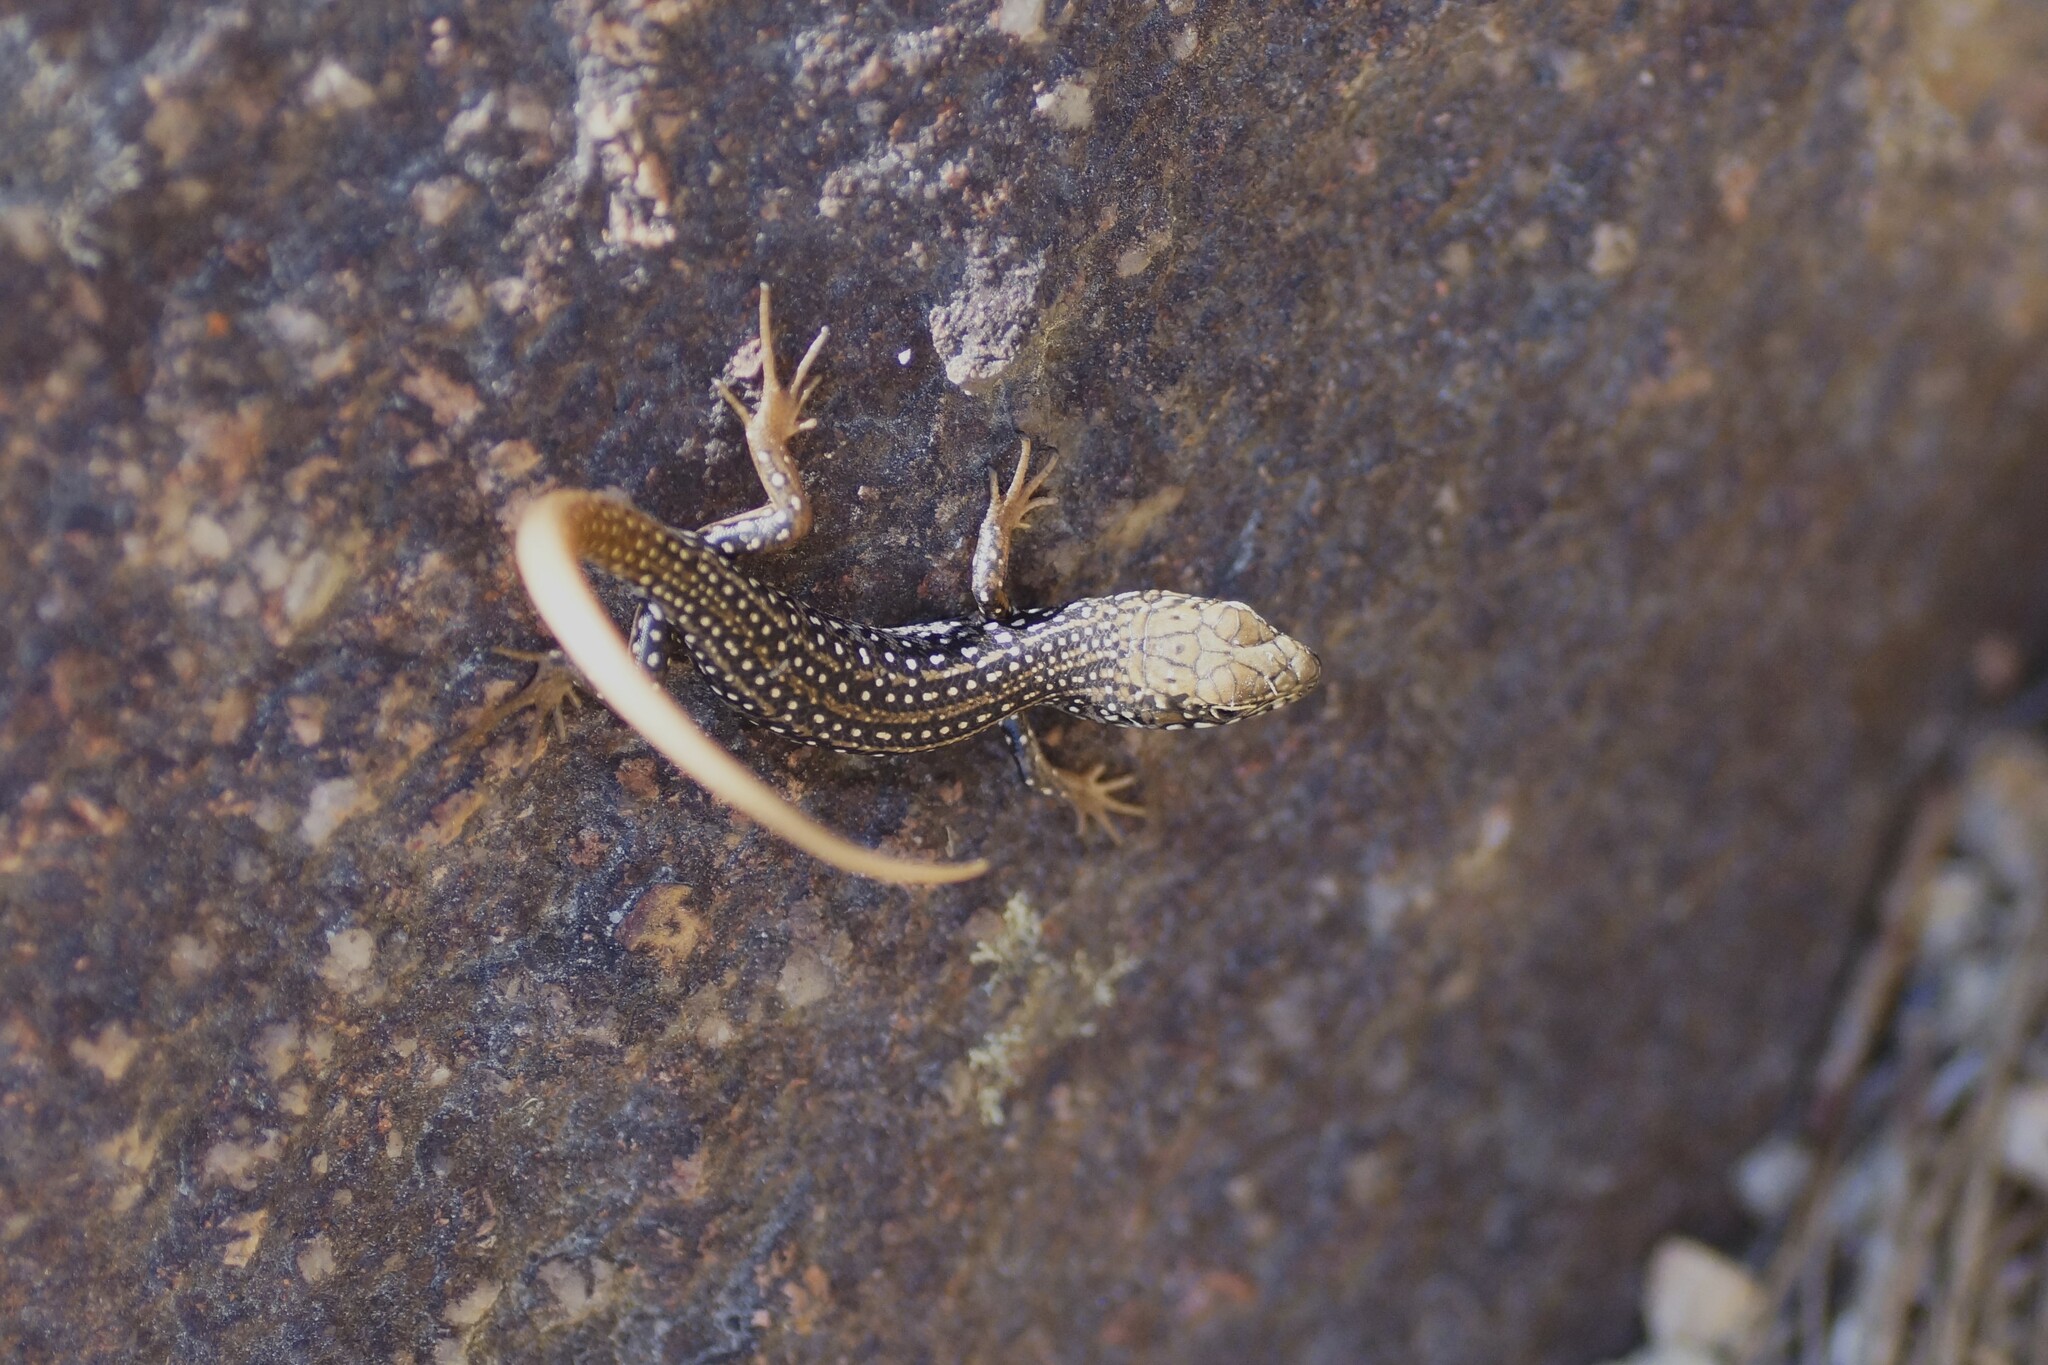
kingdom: Animalia
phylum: Chordata
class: Squamata
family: Scincidae
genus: Liopholis
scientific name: Liopholis whitii
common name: White's rock-skink
